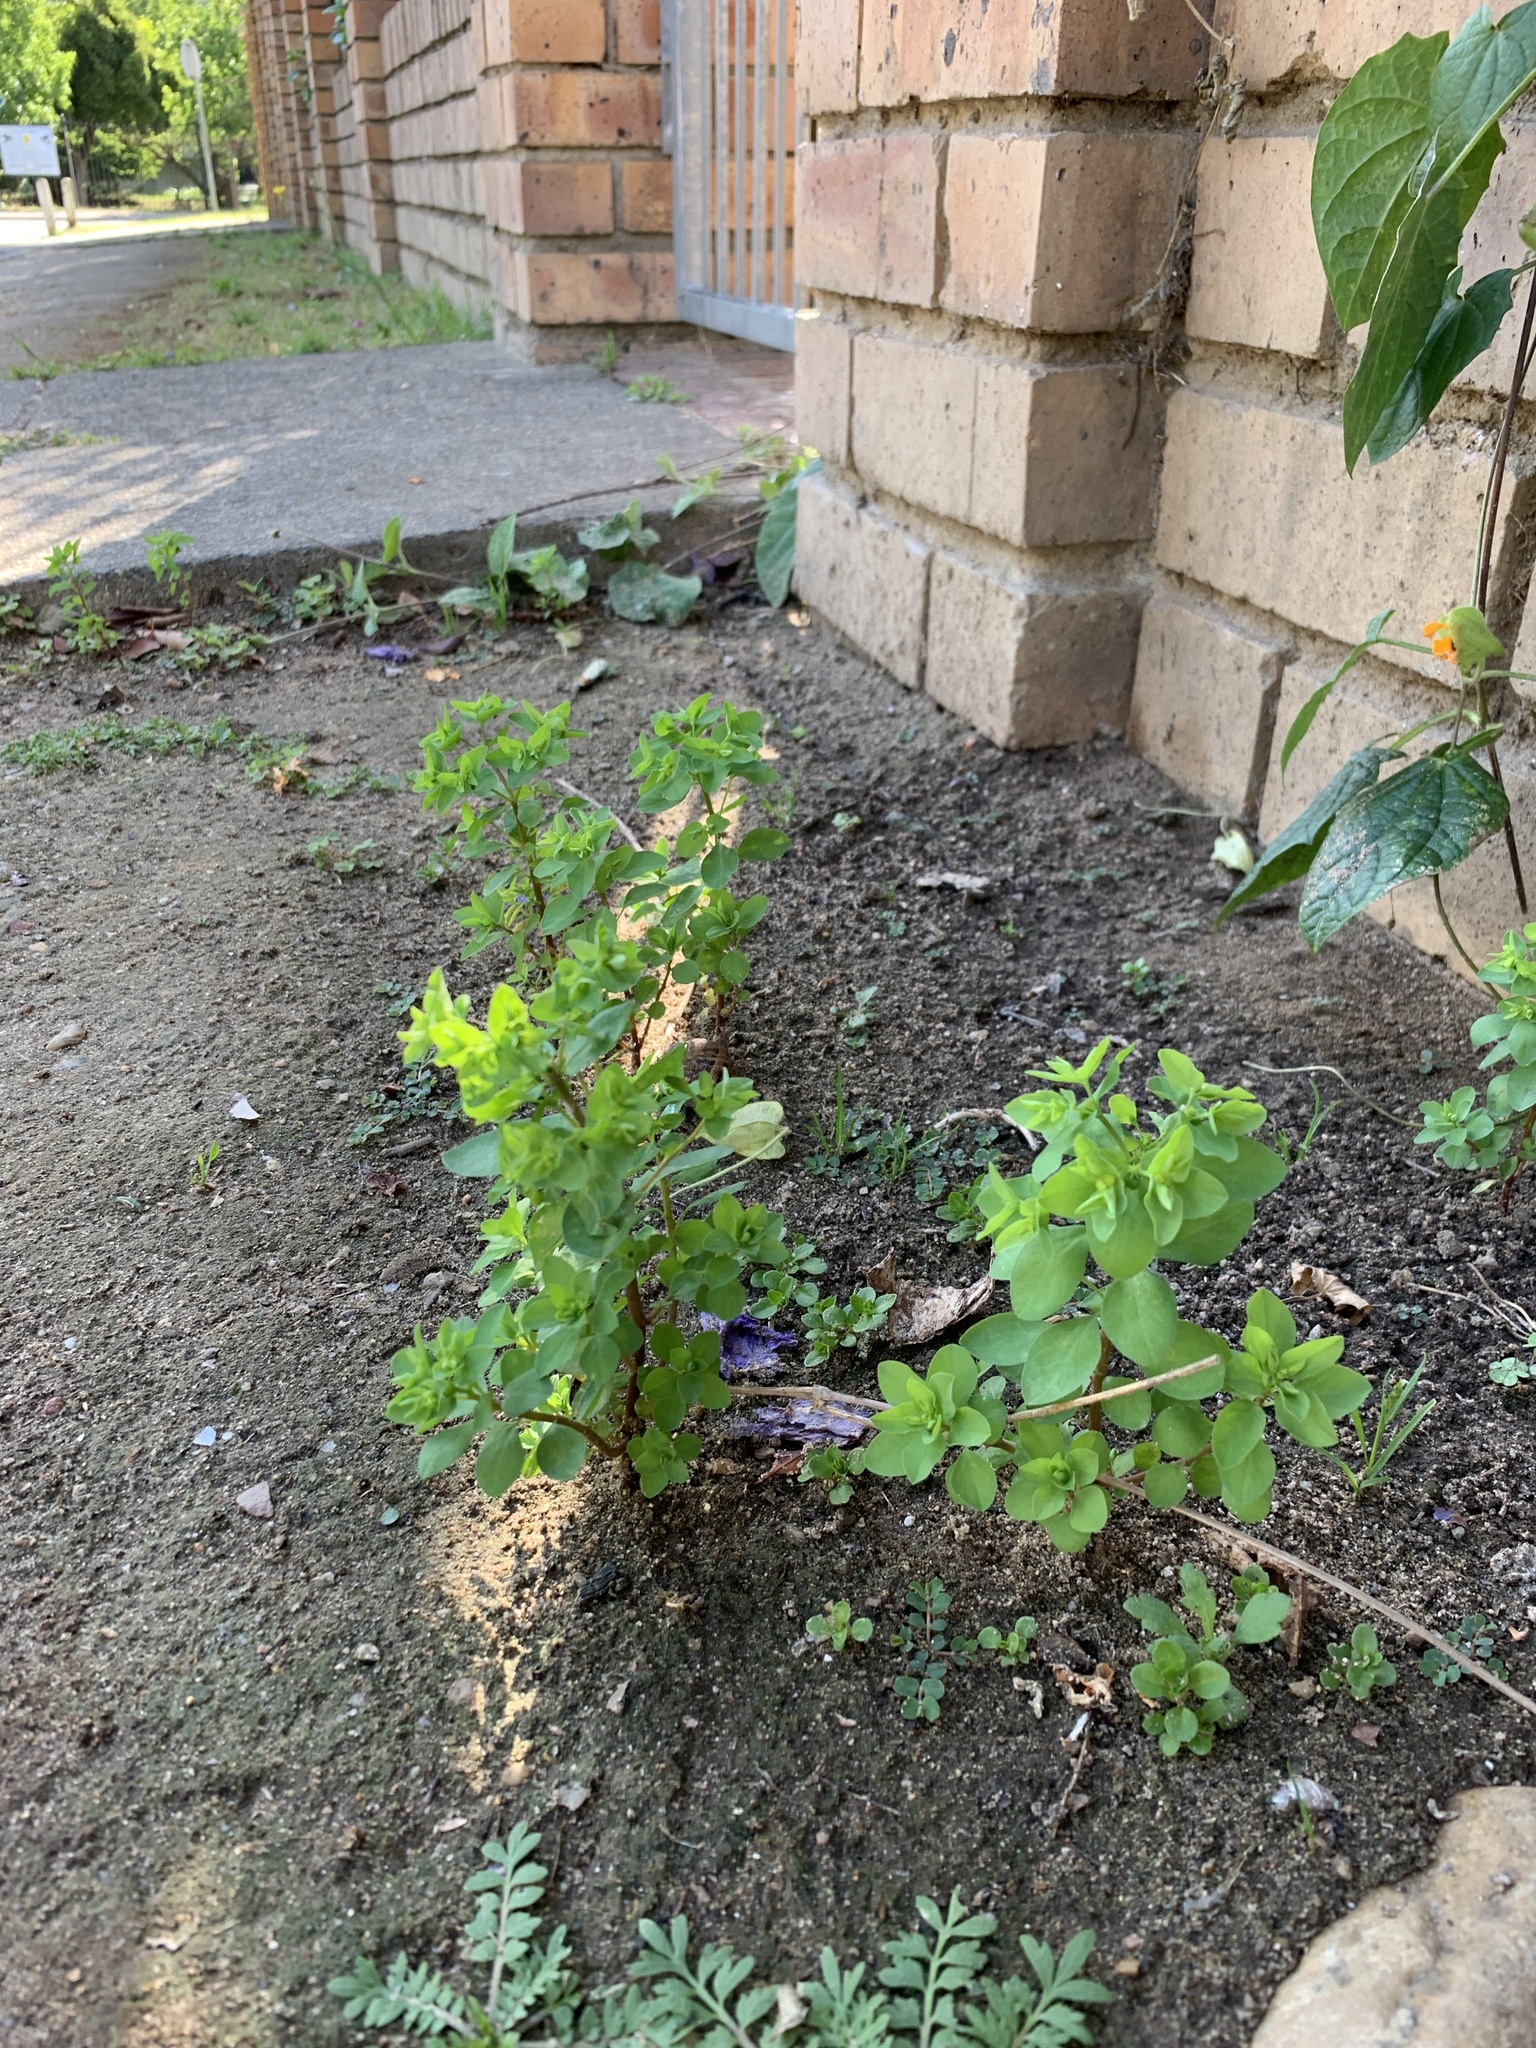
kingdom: Plantae
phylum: Tracheophyta
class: Magnoliopsida
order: Malpighiales
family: Euphorbiaceae
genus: Euphorbia
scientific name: Euphorbia peplus
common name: Petty spurge
